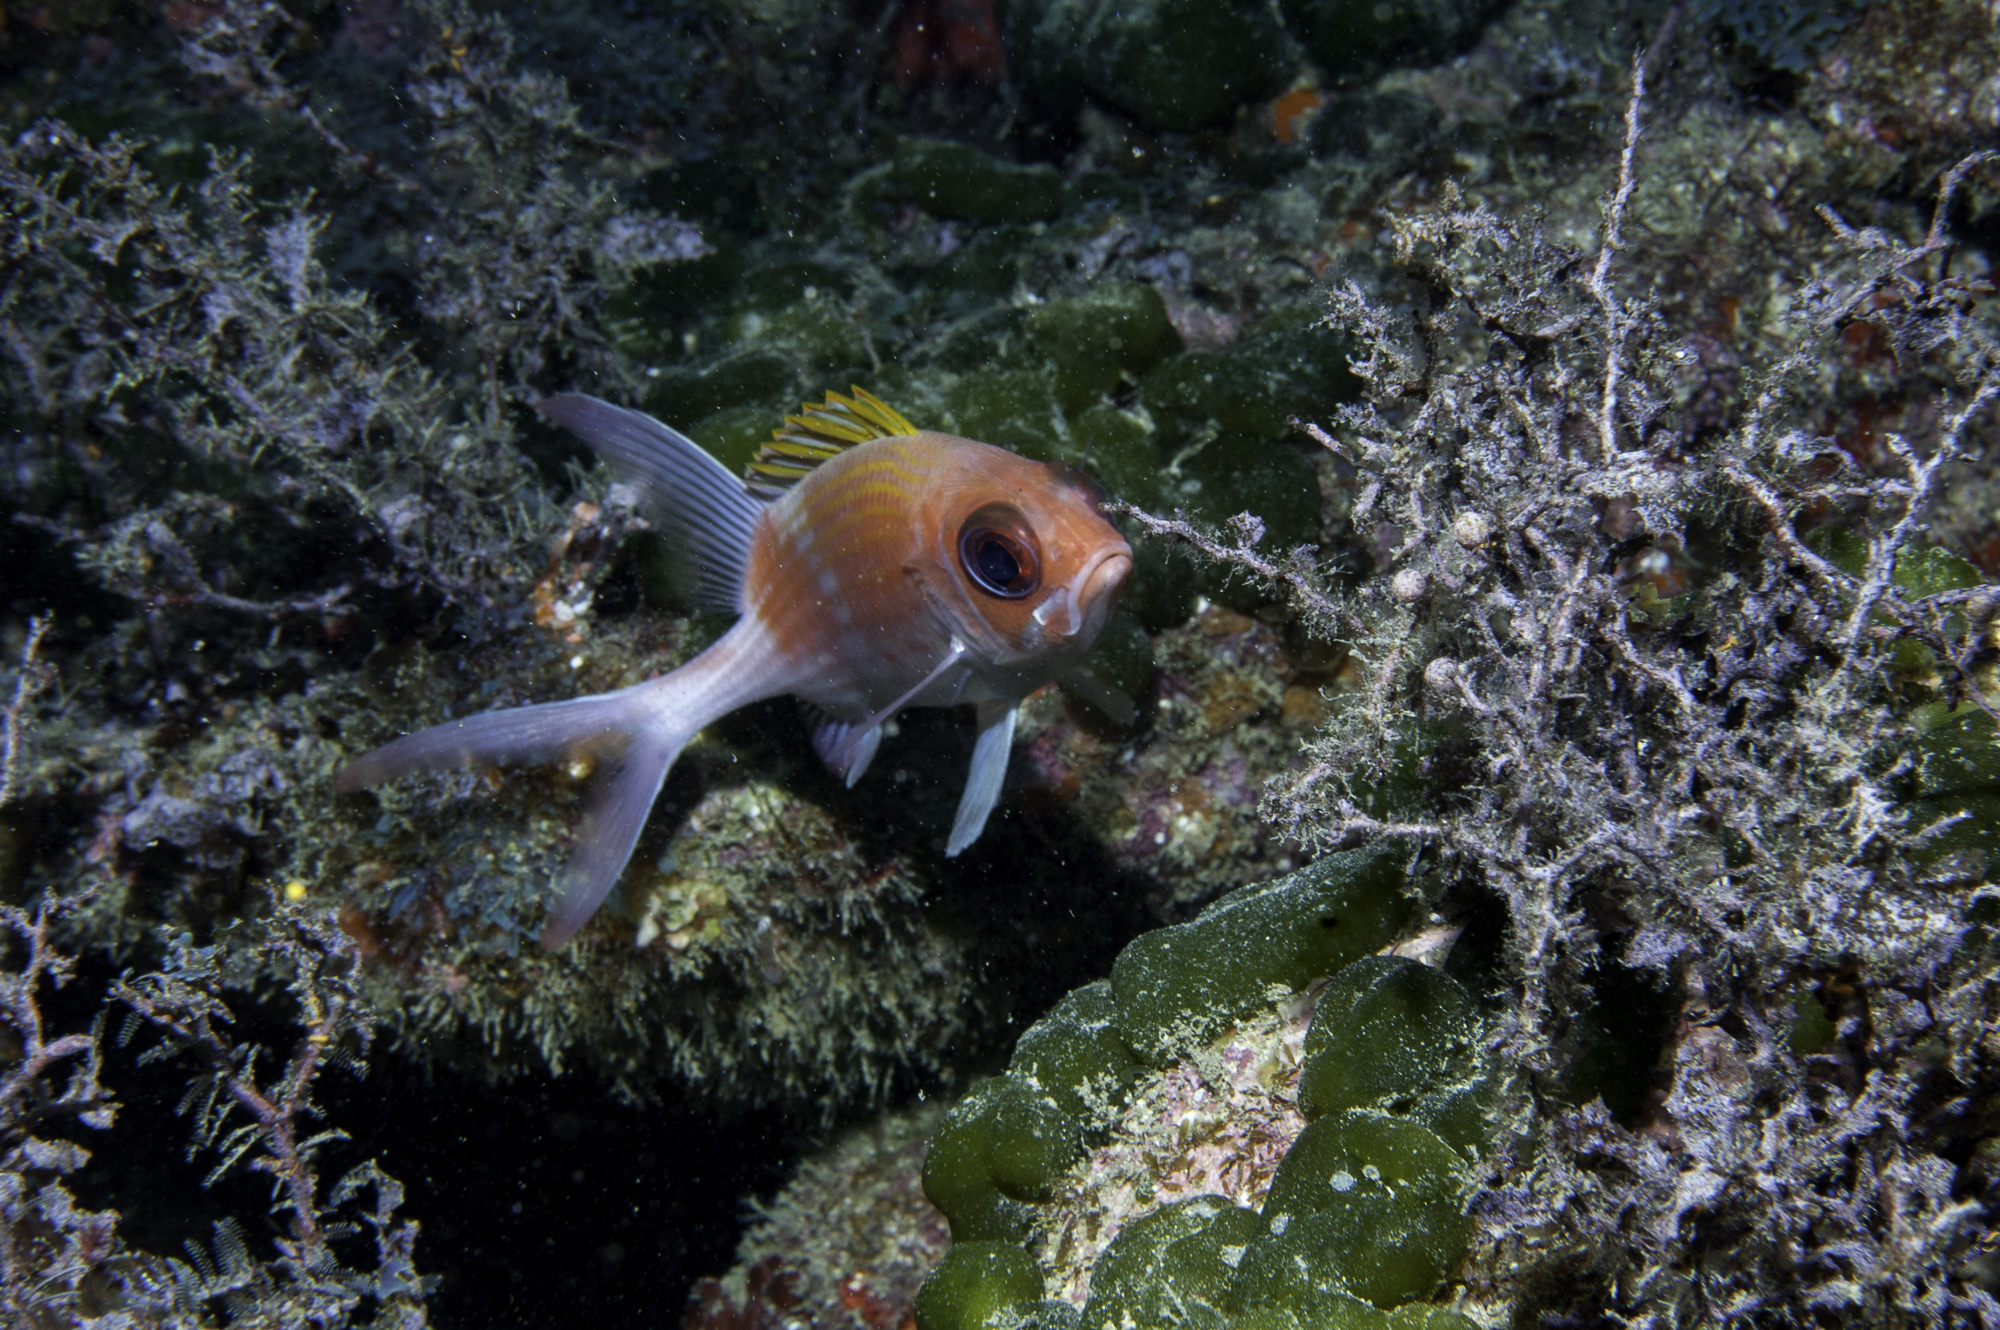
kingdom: Animalia
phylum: Chordata
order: Beryciformes
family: Holocentridae
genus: Holocentrus
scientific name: Holocentrus adscensionis
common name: Squirrelfish
